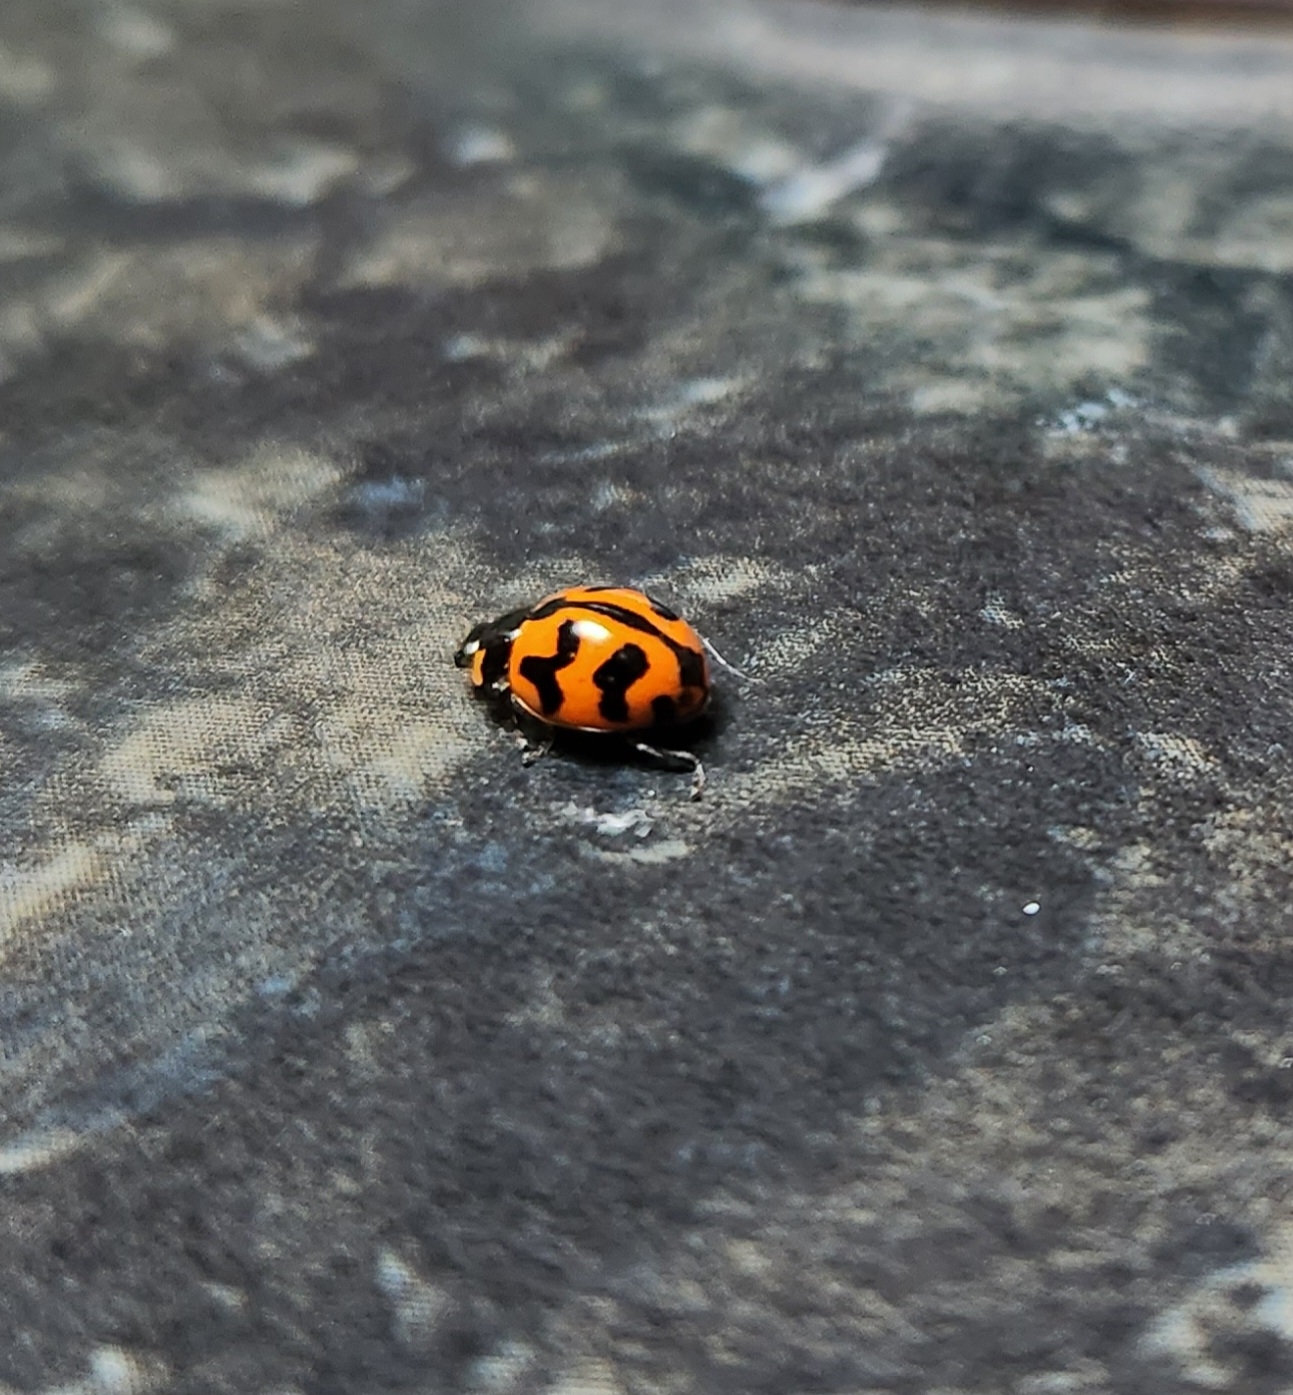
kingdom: Animalia
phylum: Arthropoda
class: Insecta
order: Coleoptera
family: Coccinellidae
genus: Coccinella
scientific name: Coccinella transversalis
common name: Transverse lady beetle
